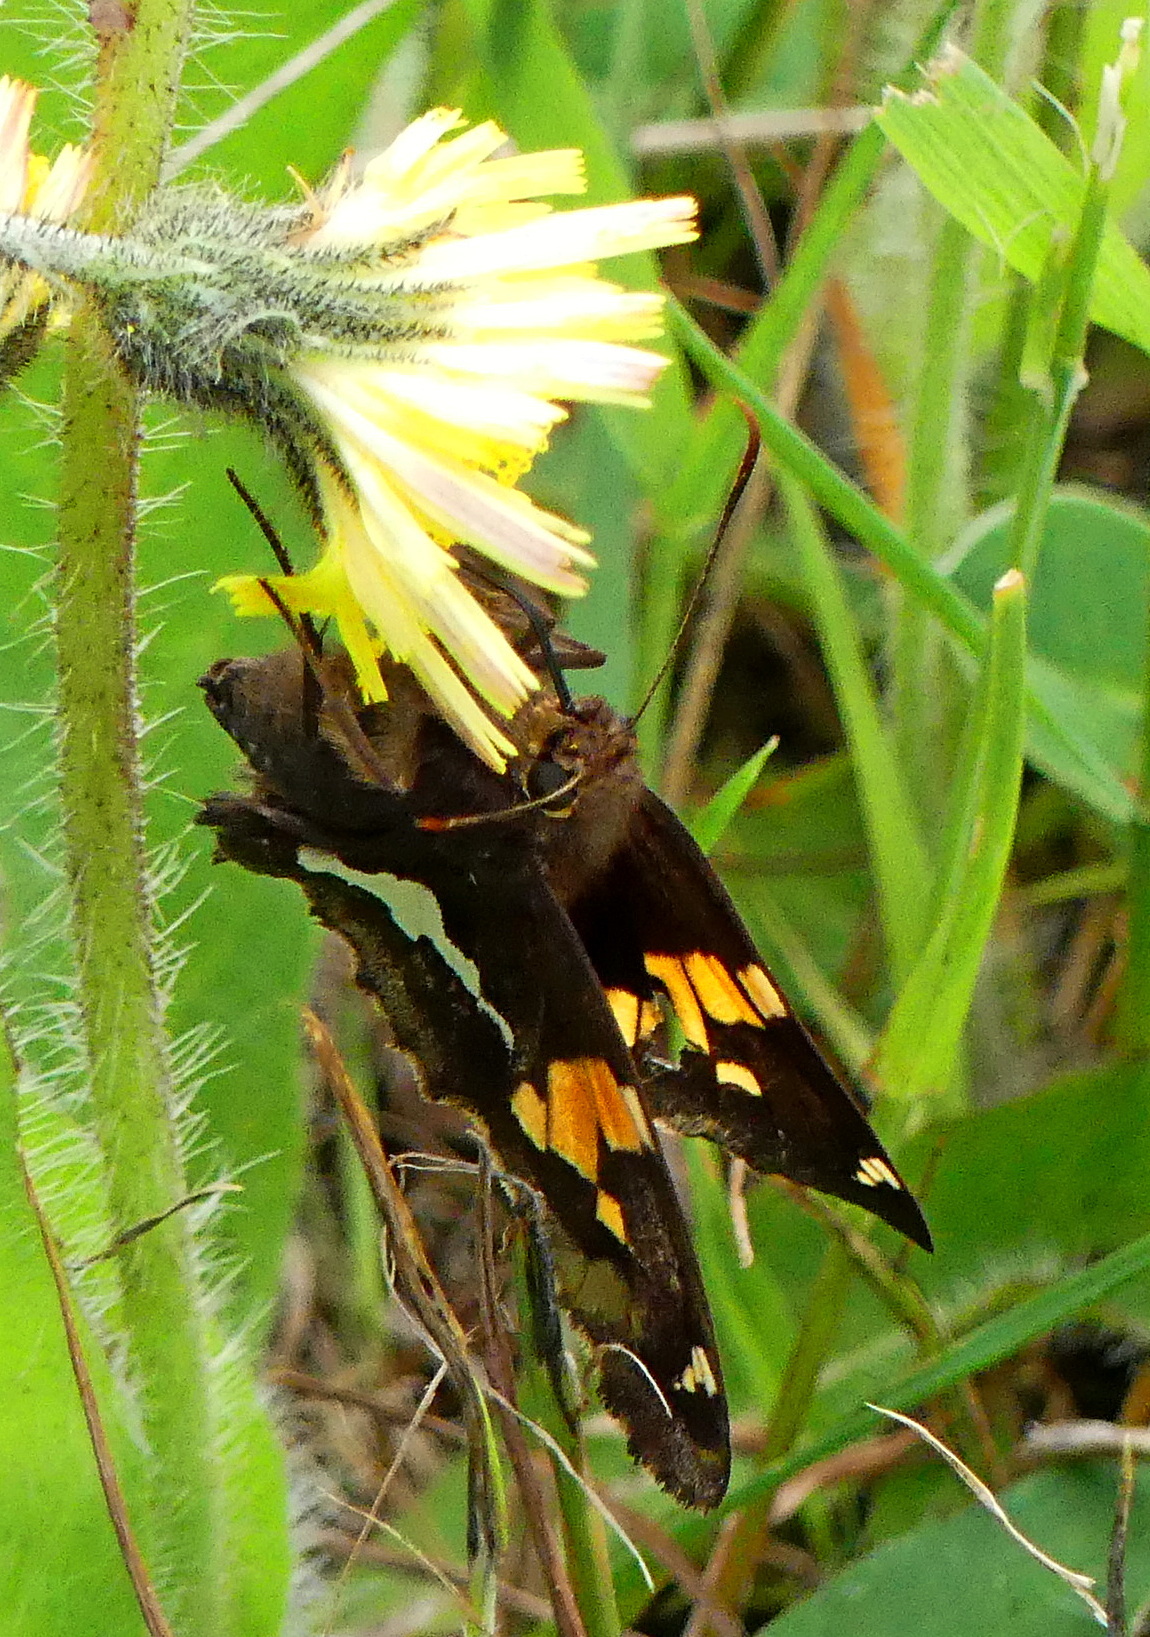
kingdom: Animalia
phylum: Arthropoda
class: Insecta
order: Lepidoptera
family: Hesperiidae
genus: Epargyreus
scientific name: Epargyreus clarus
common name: Silver-spotted skipper
